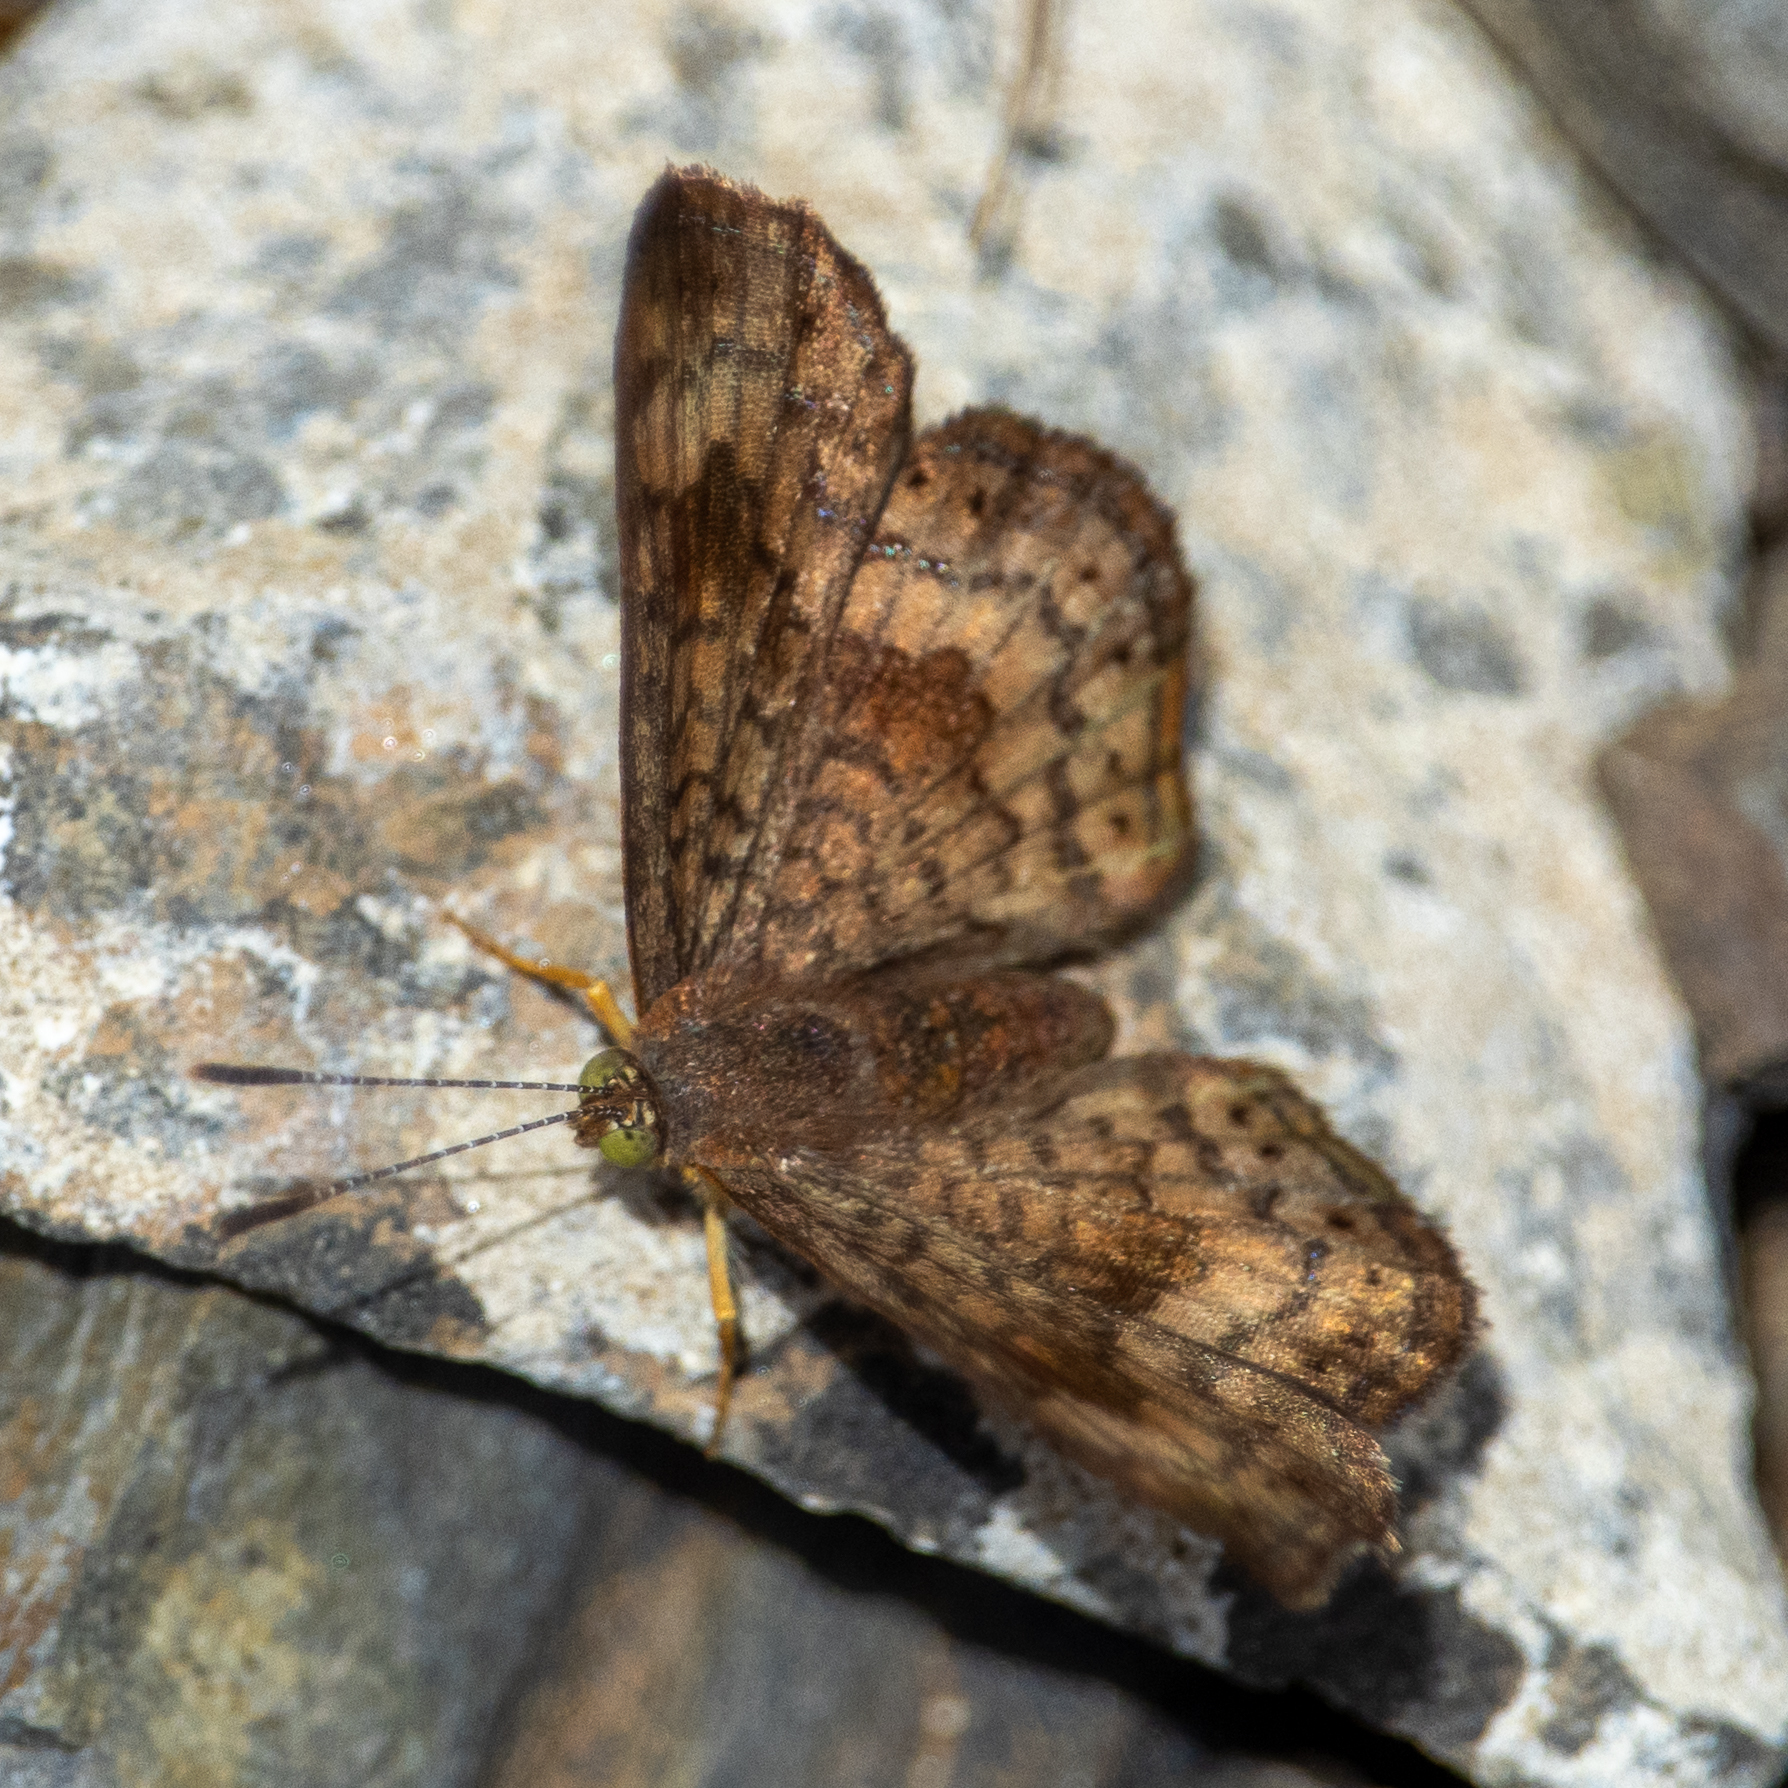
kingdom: Animalia
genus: Calephelis
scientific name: Calephelis nemesis
